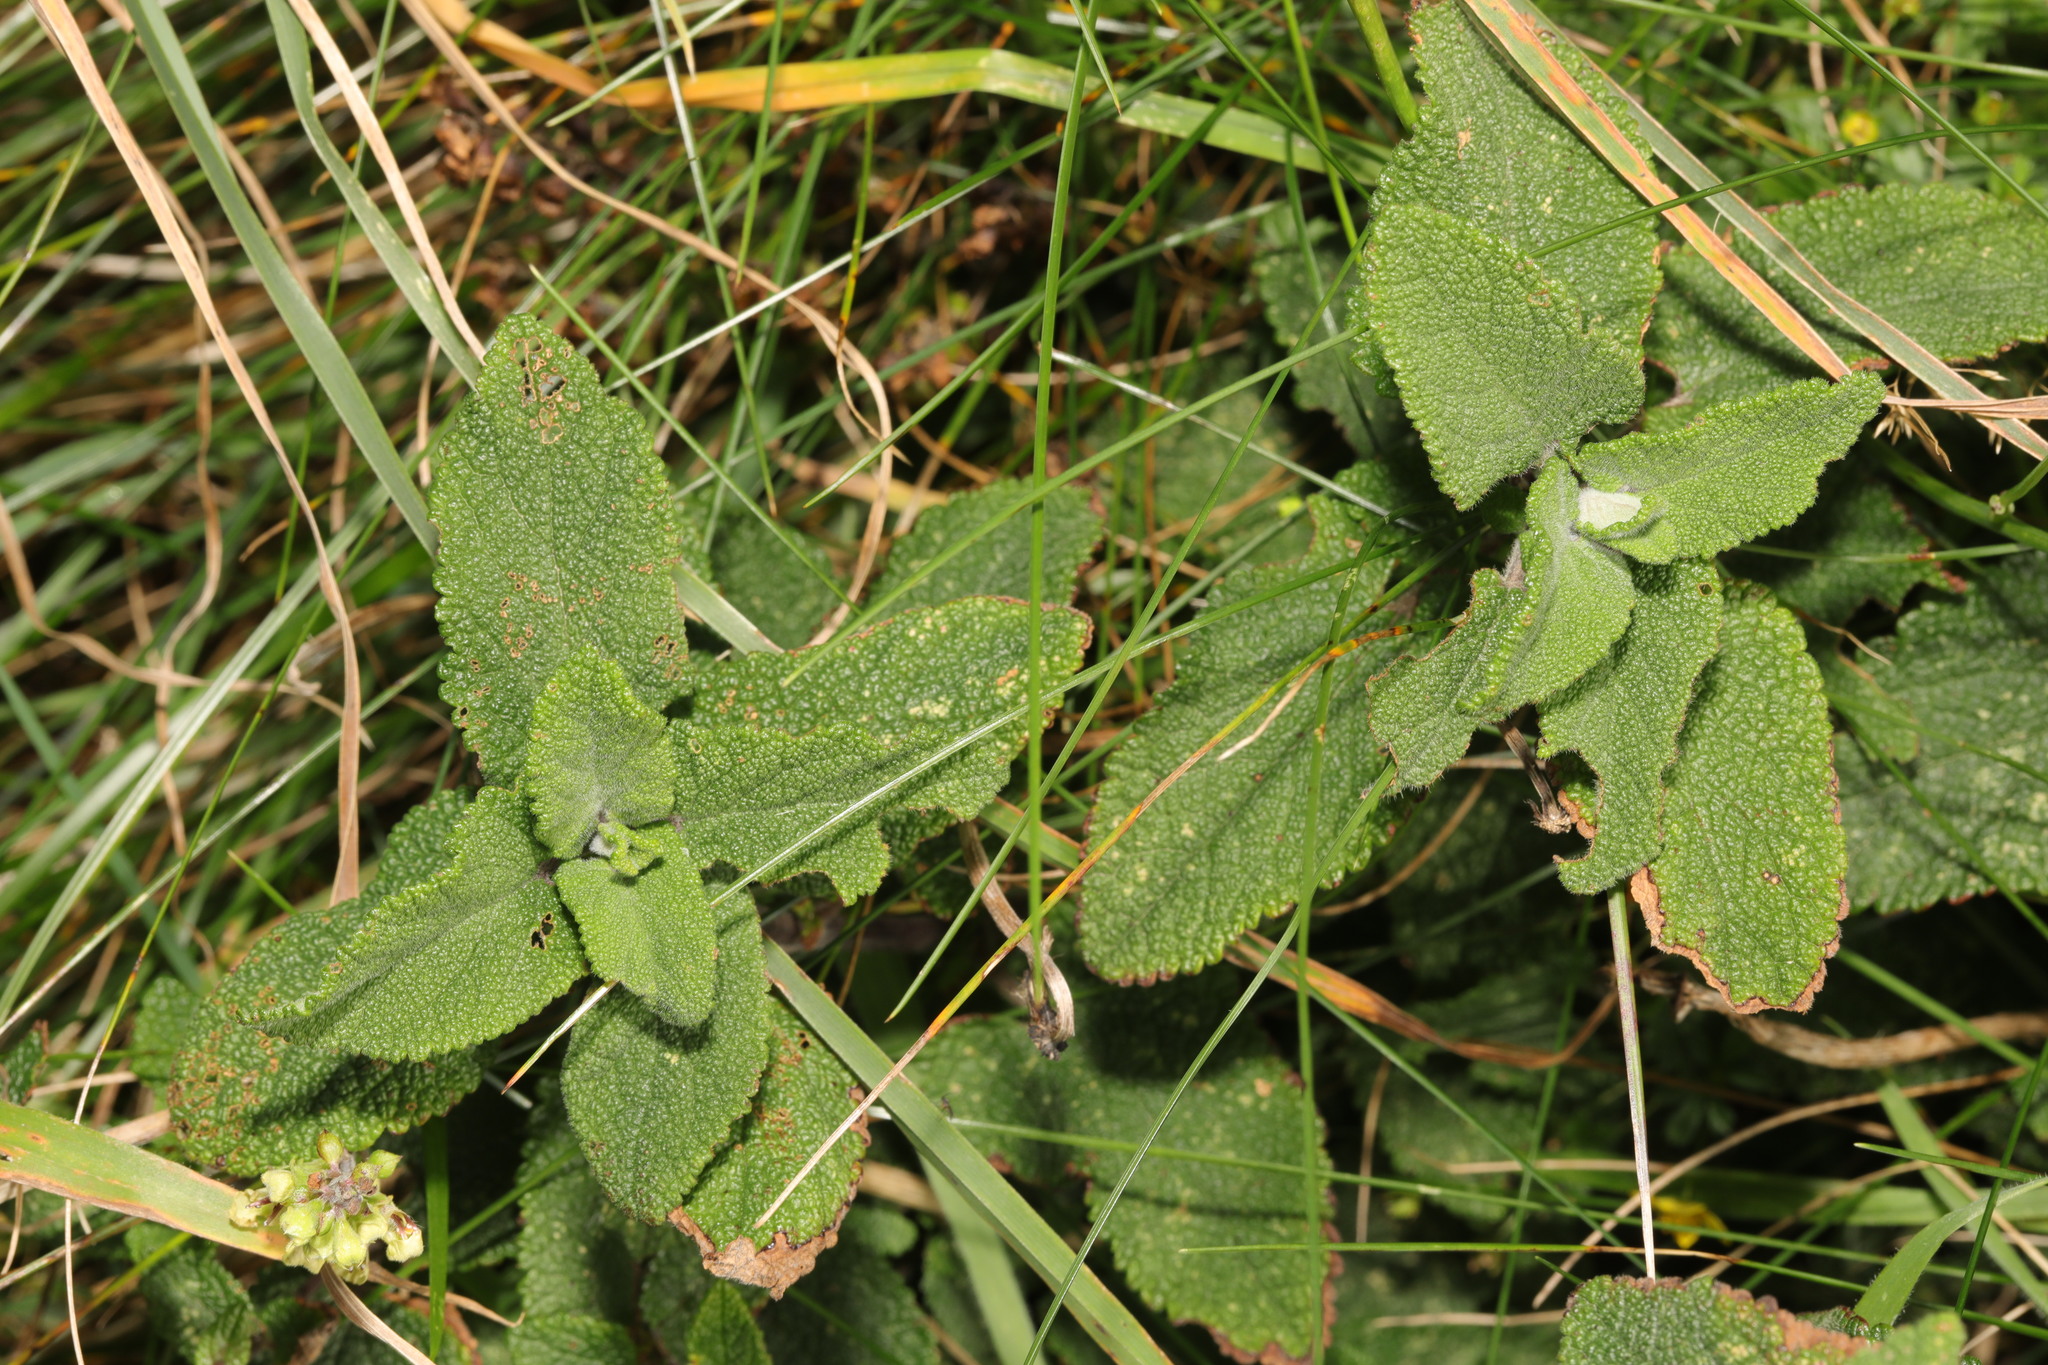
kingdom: Plantae
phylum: Tracheophyta
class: Magnoliopsida
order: Lamiales
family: Lamiaceae
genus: Teucrium
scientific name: Teucrium scorodonia
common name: Woodland germander
